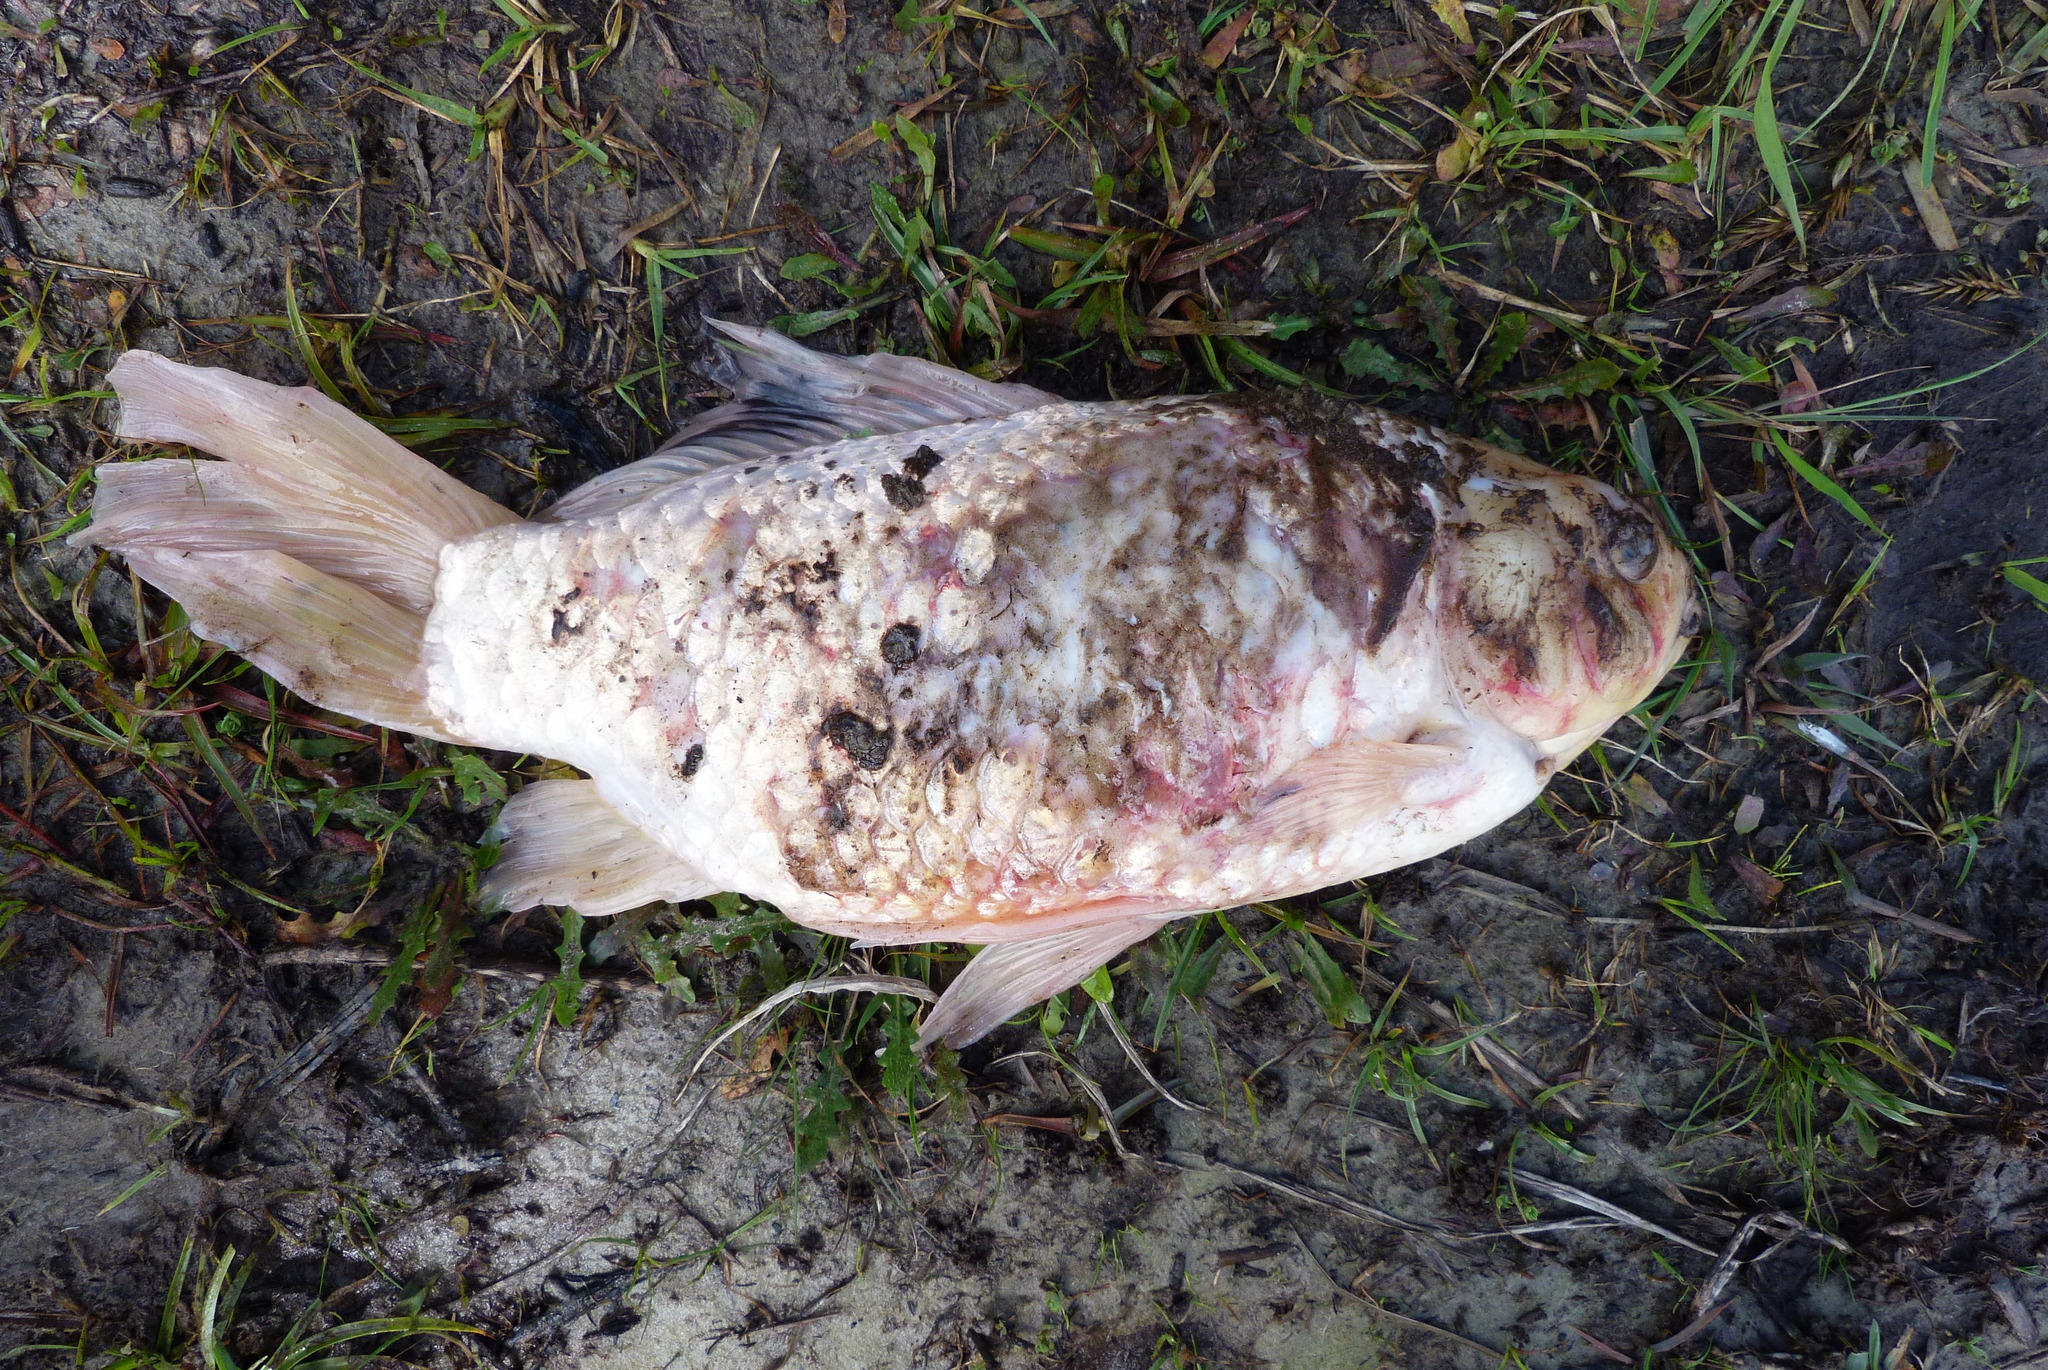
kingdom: Animalia
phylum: Chordata
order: Cypriniformes
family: Cyprinidae
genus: Carassius
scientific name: Carassius auratus
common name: Goldfish
